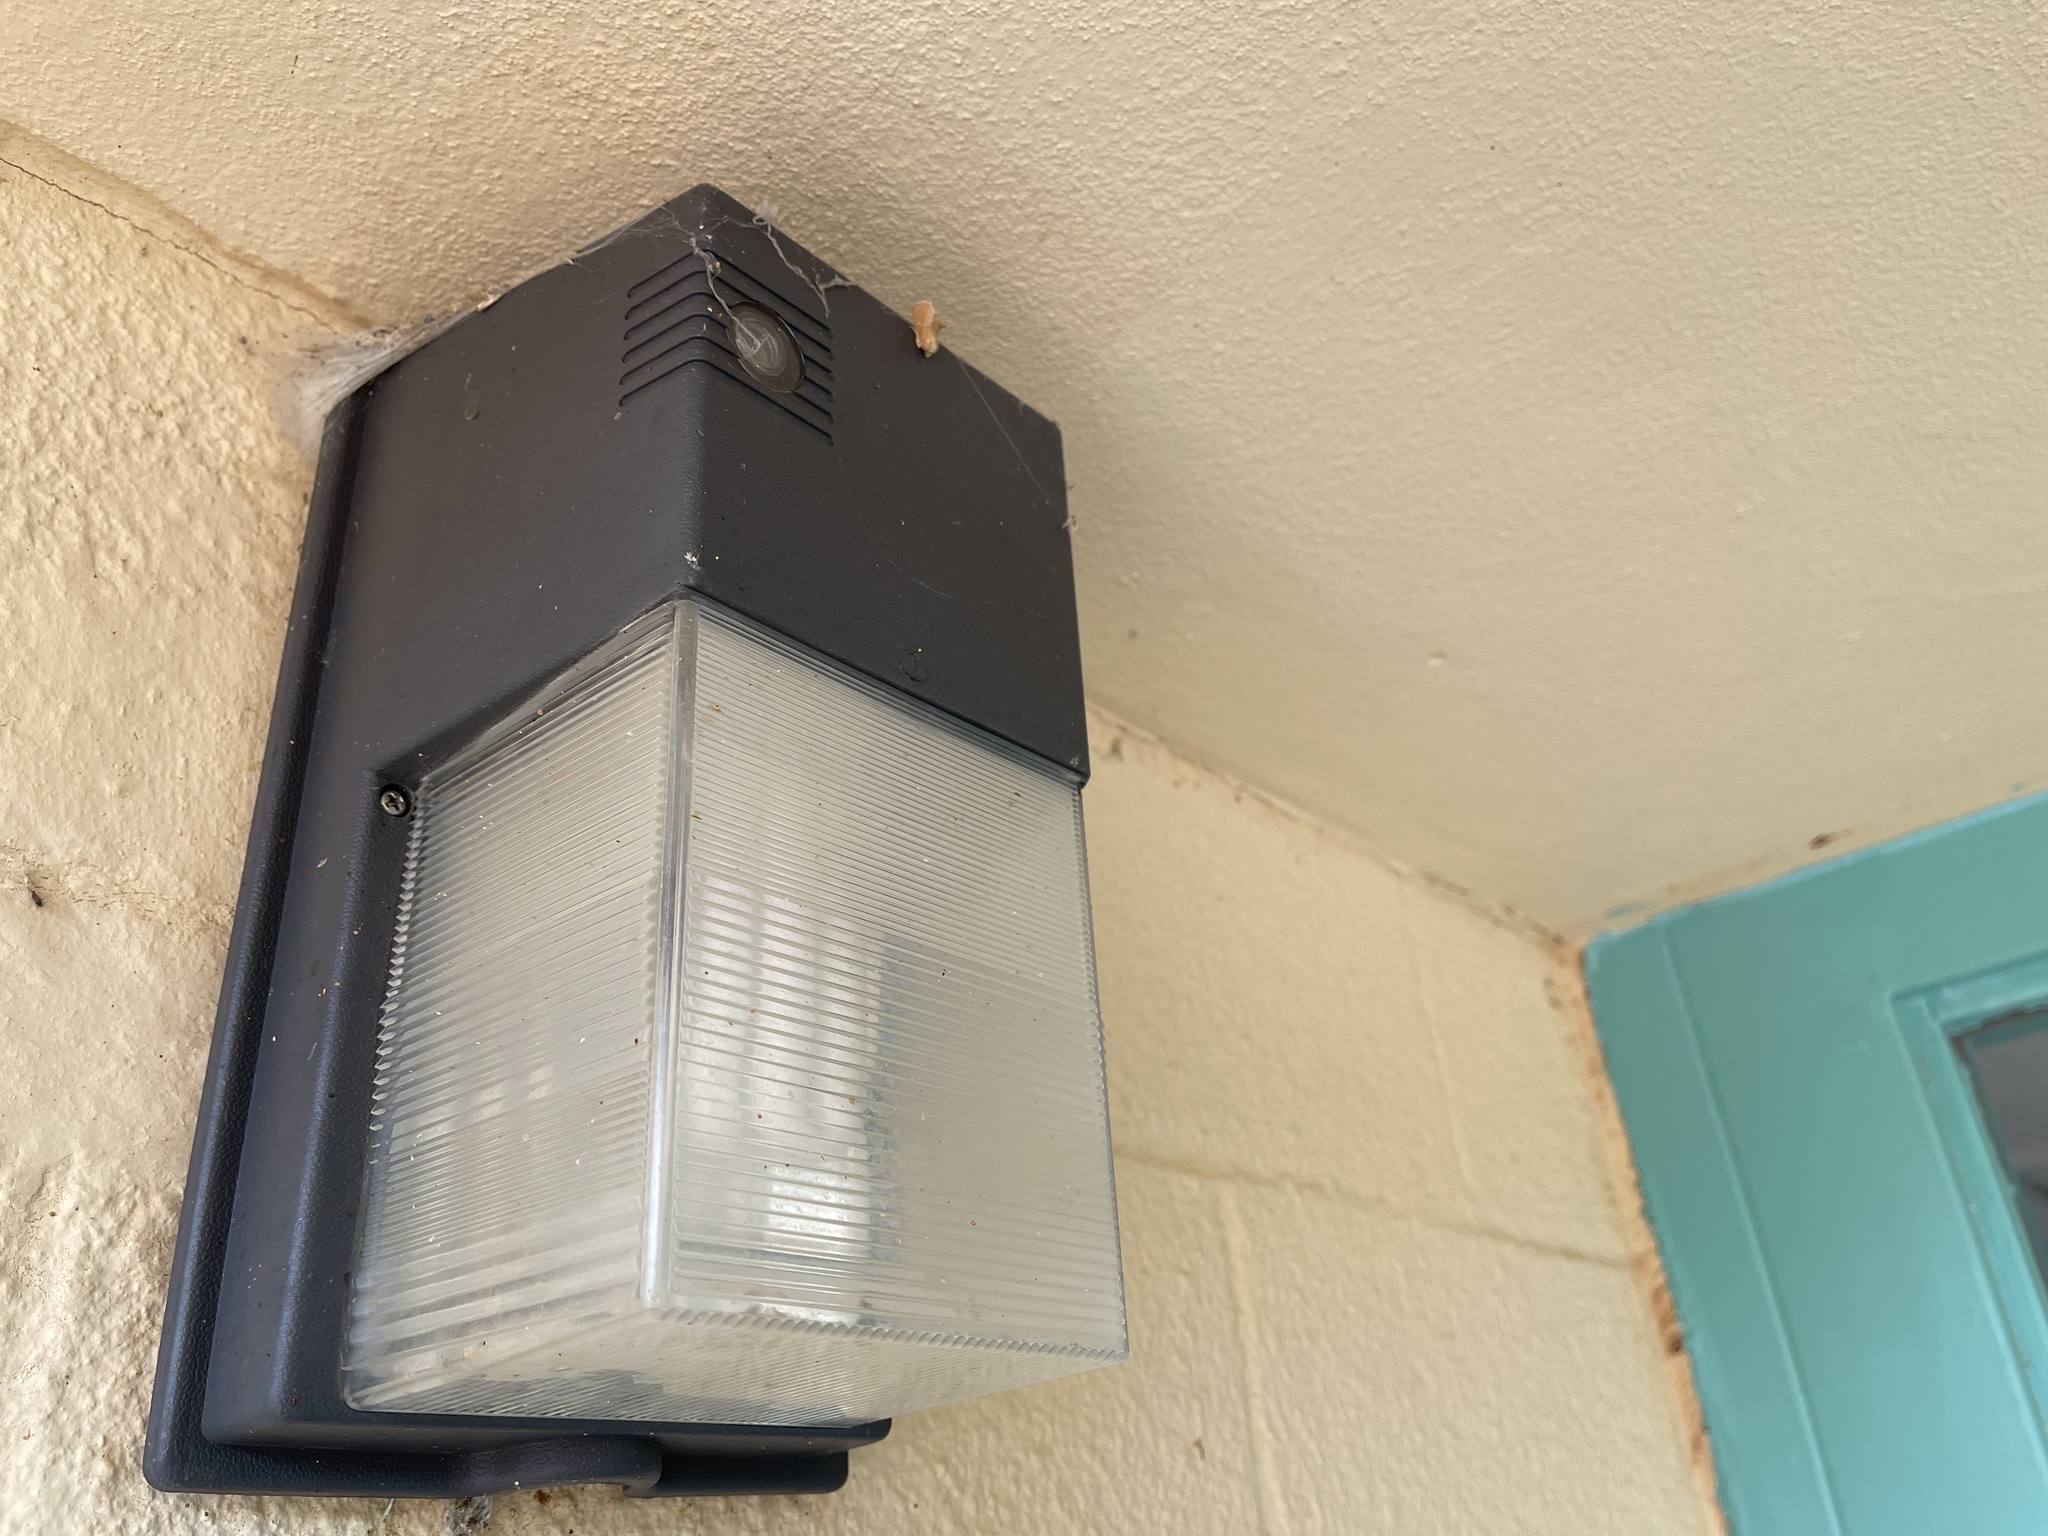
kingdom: Animalia
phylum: Arthropoda
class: Insecta
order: Lepidoptera
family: Limacodidae
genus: Apoda
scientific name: Apoda latomia
